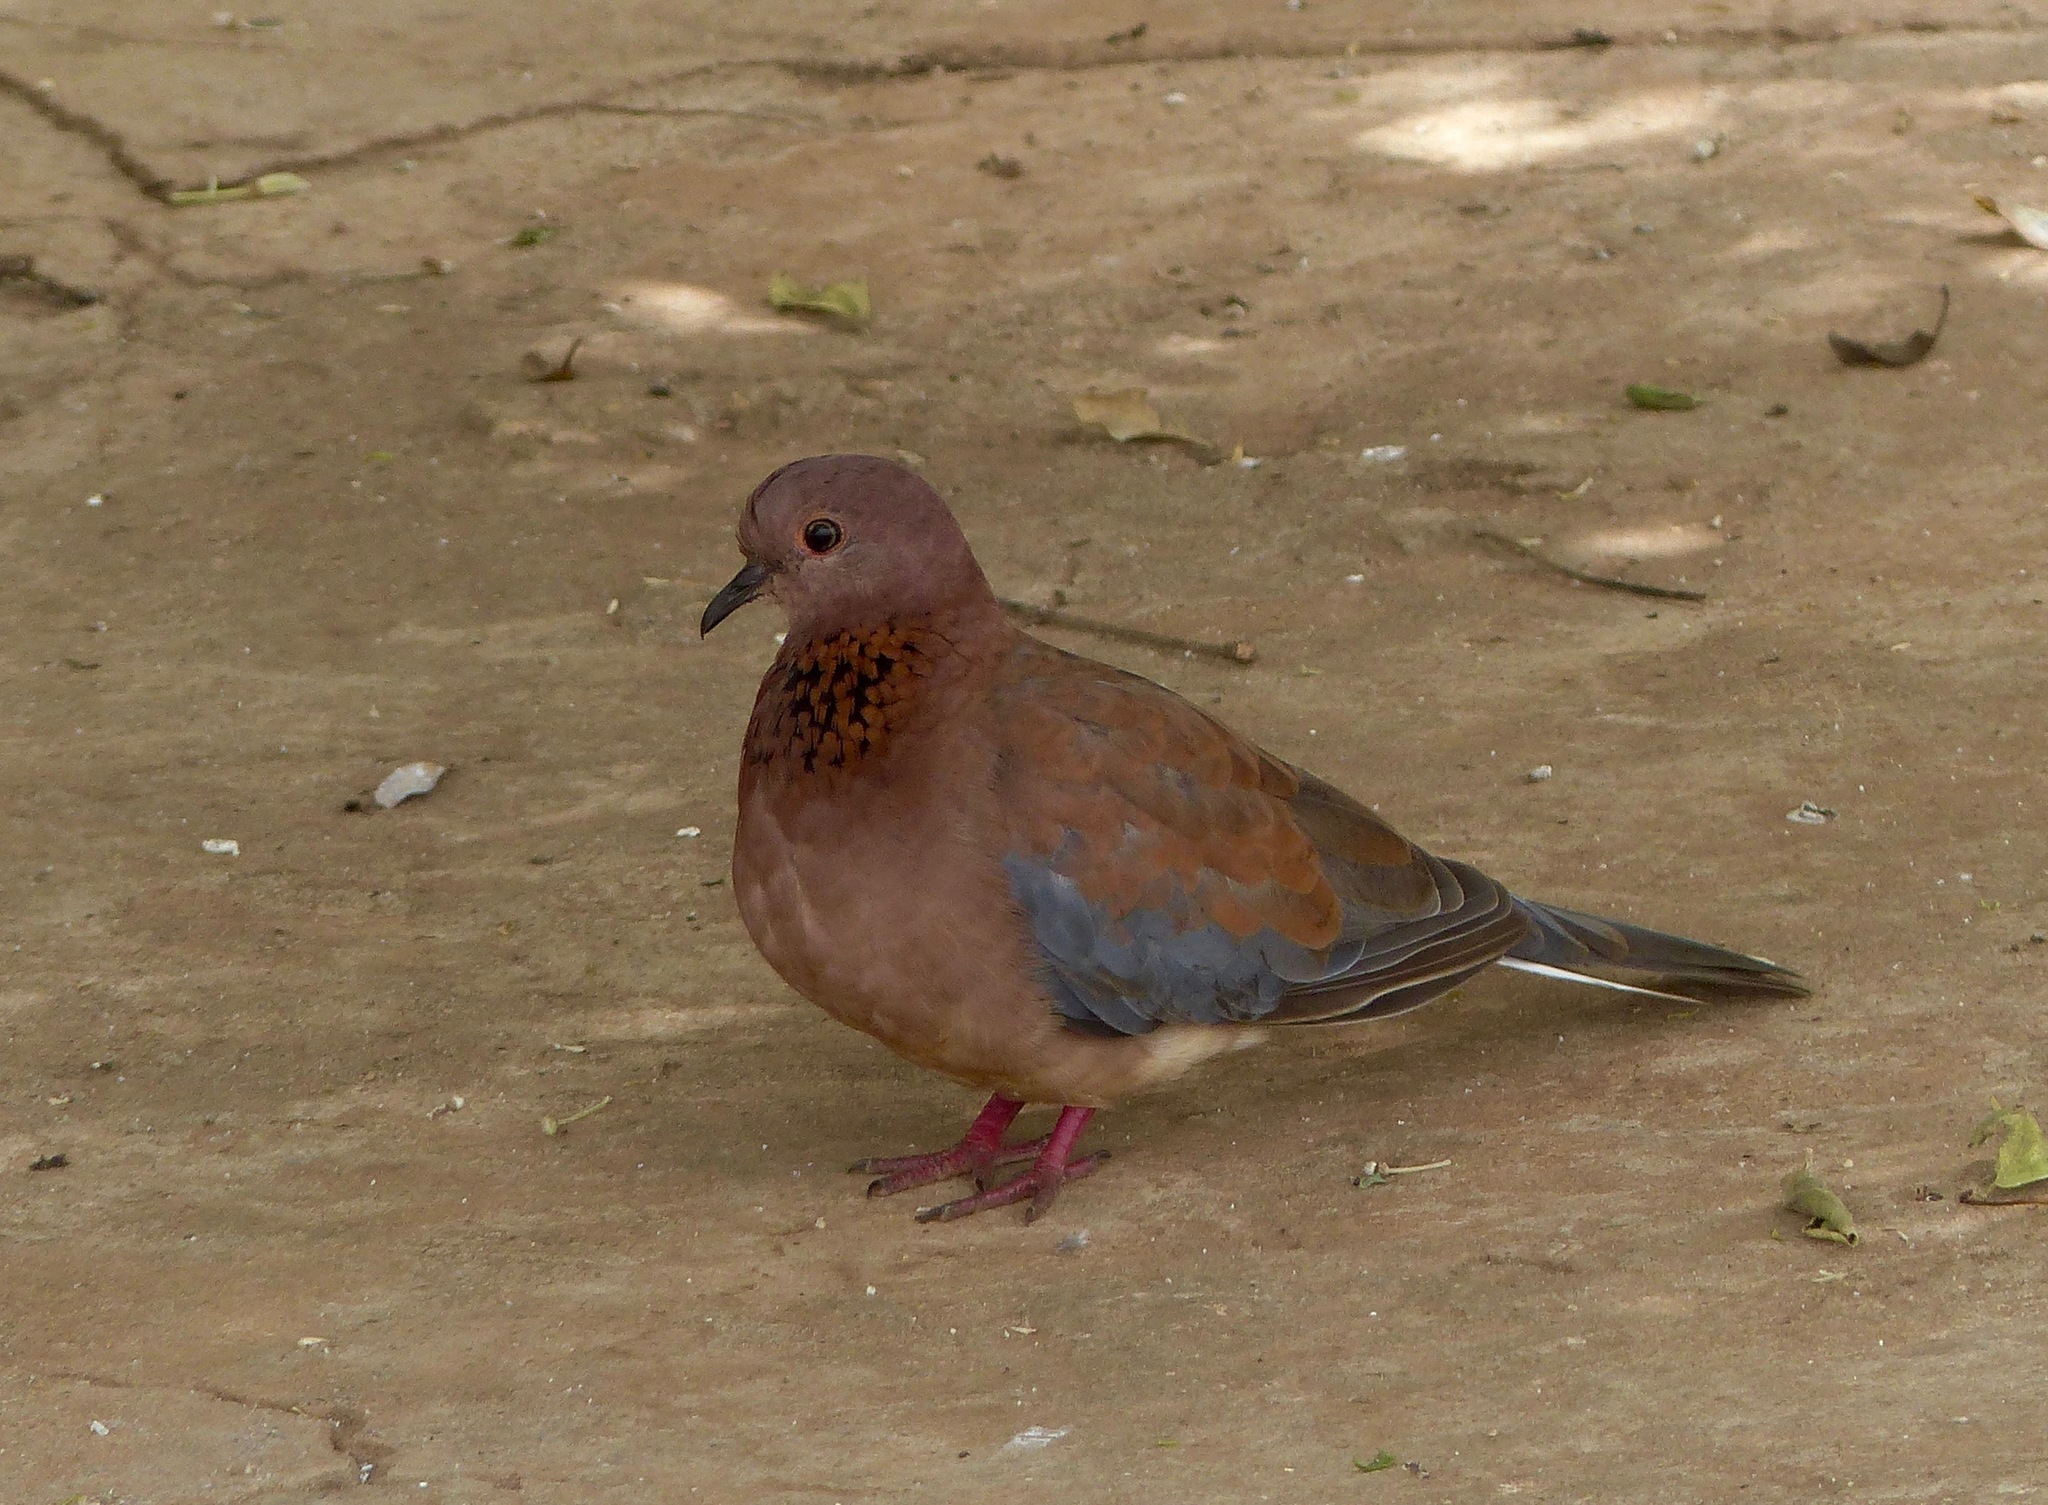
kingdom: Animalia
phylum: Chordata
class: Aves
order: Columbiformes
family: Columbidae
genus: Spilopelia
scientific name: Spilopelia senegalensis
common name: Laughing dove
